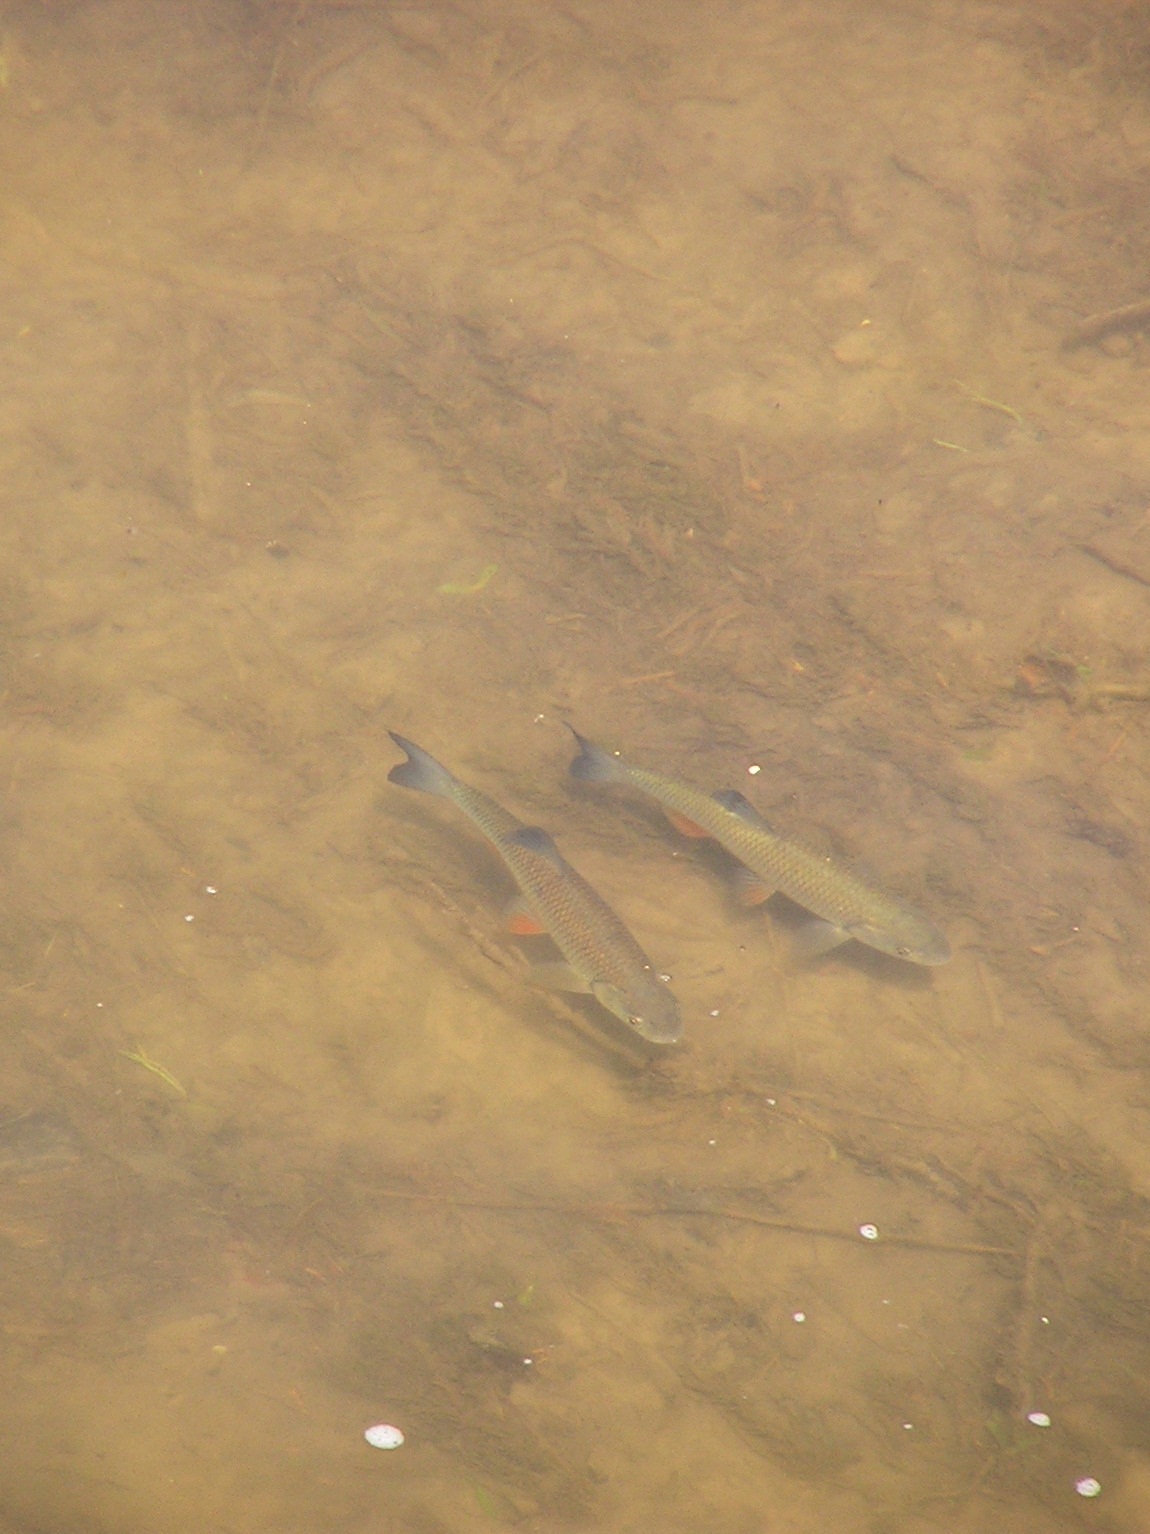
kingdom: Animalia
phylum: Chordata
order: Cypriniformes
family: Cyprinidae
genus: Squalius
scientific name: Squalius cephalus
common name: Chub
